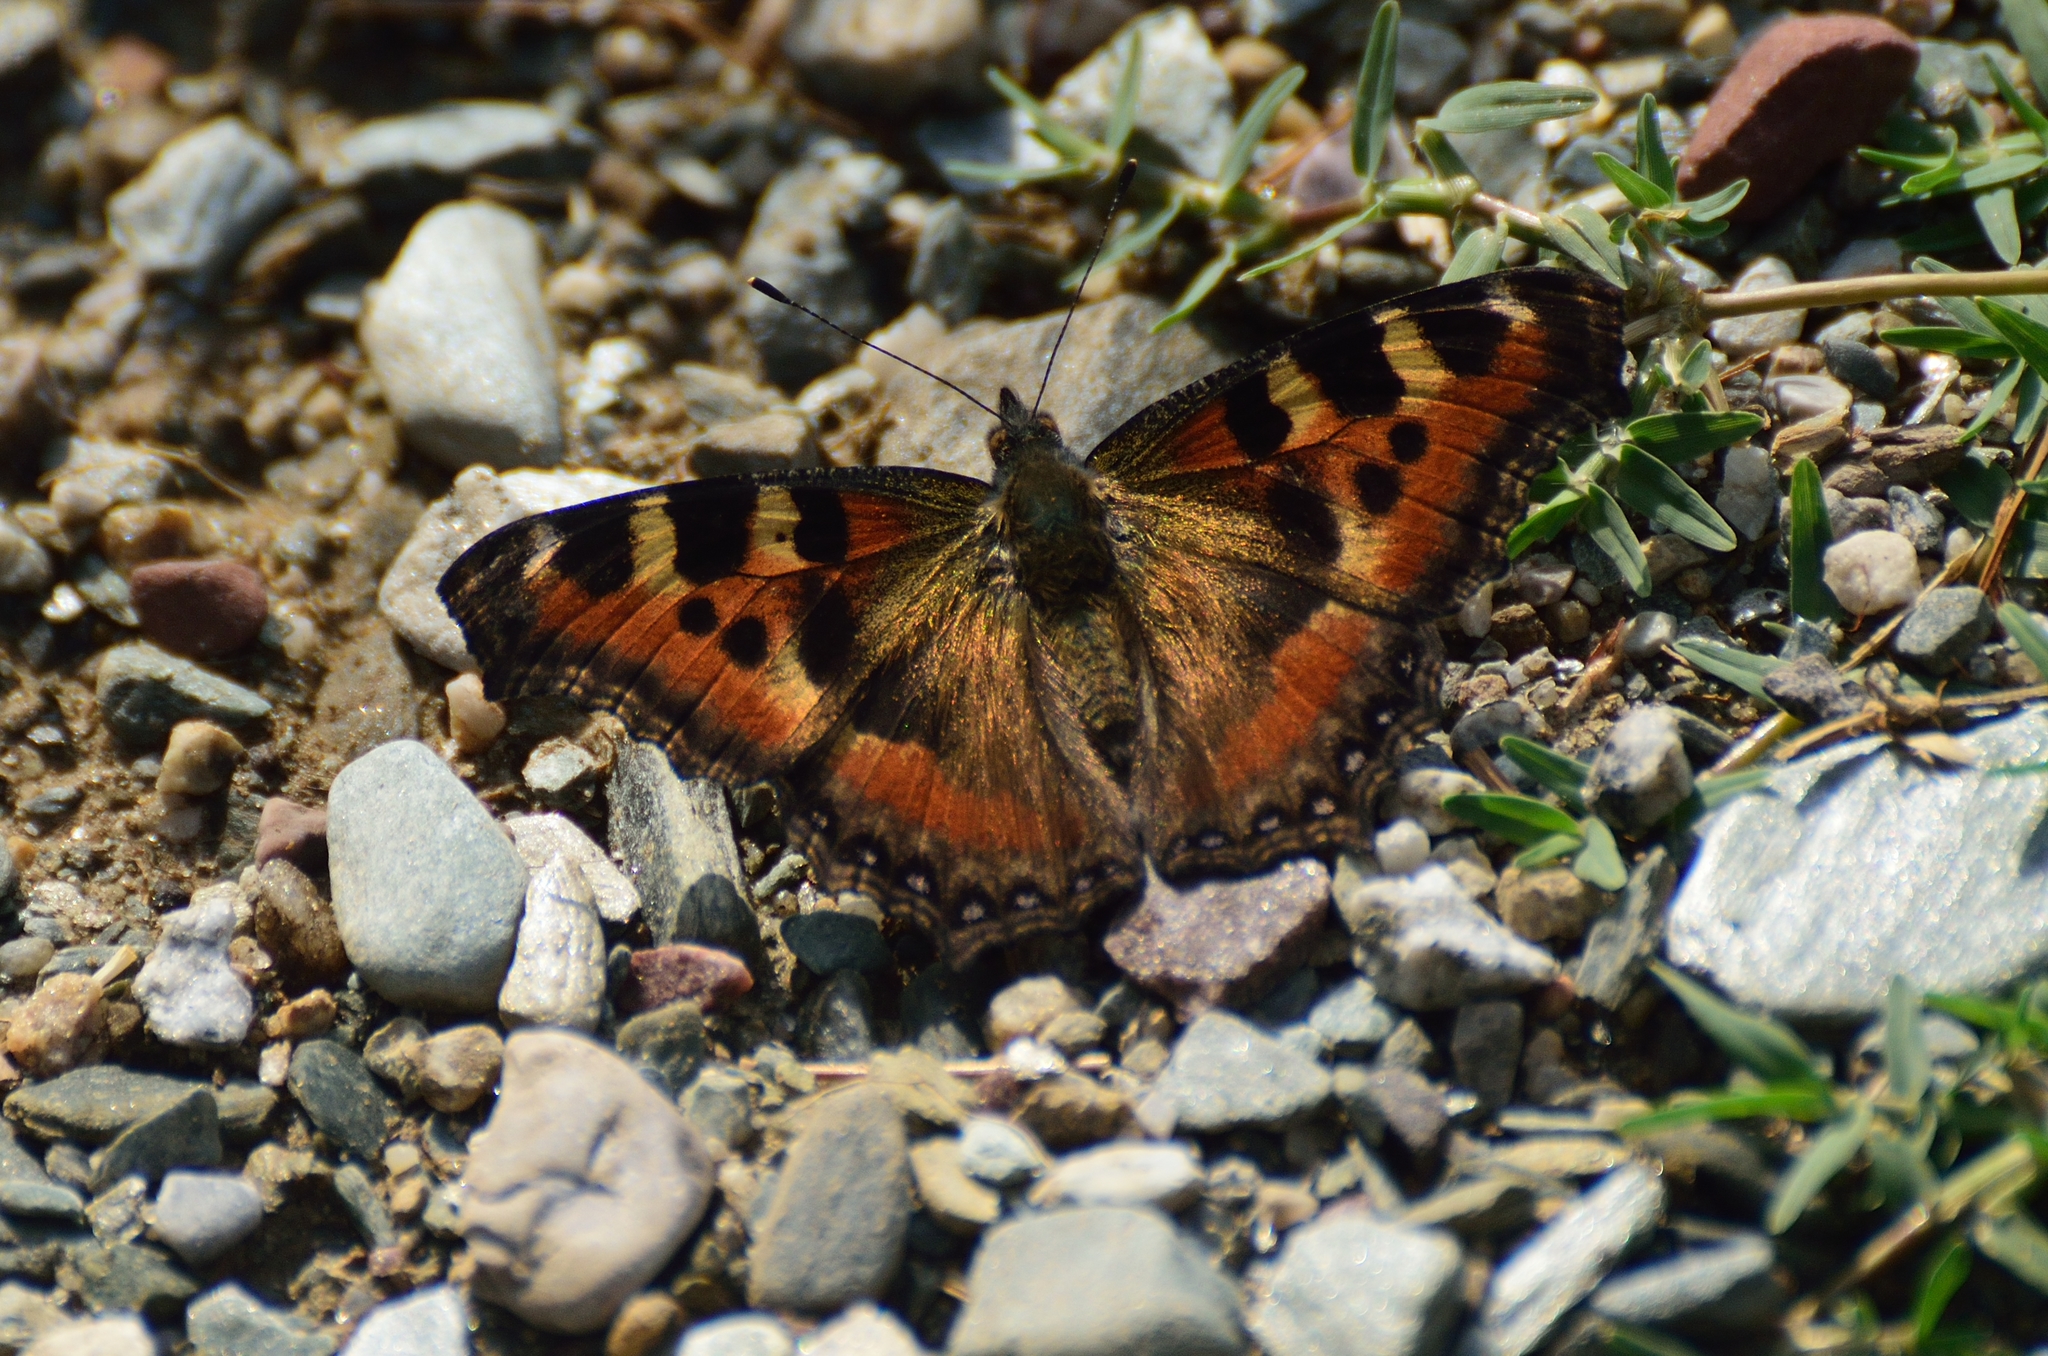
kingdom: Animalia
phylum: Arthropoda
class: Insecta
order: Lepidoptera
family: Nymphalidae
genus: Aglais
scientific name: Aglais caschmirensis
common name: Indian tortoiseshell
